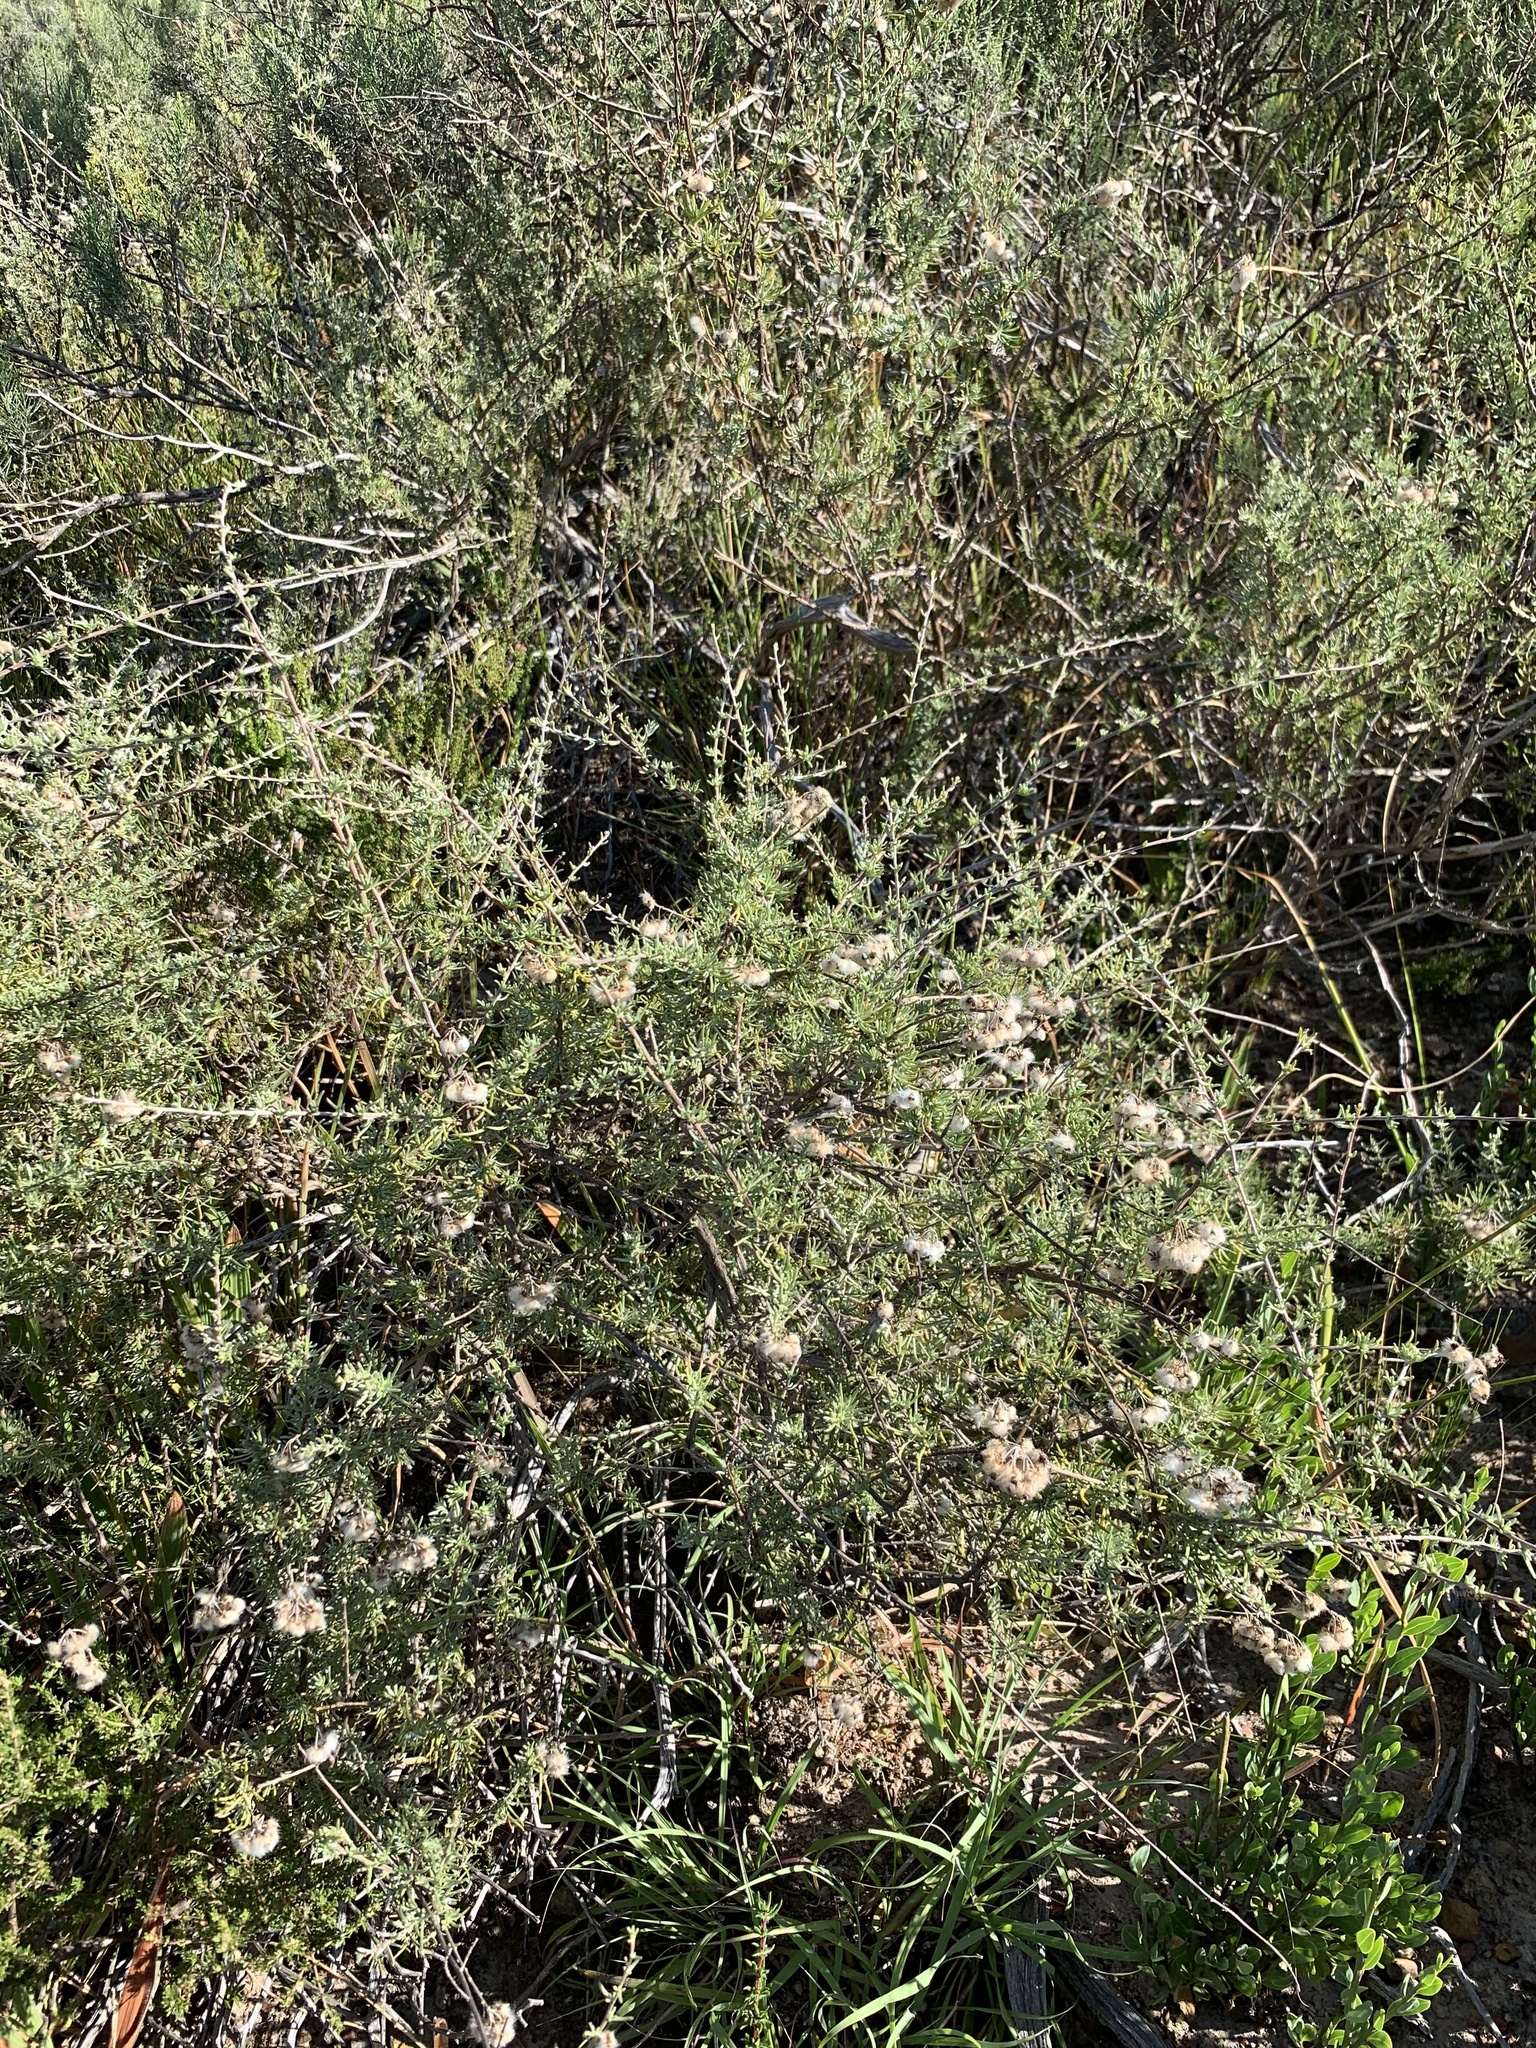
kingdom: Plantae
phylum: Tracheophyta
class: Magnoliopsida
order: Asterales
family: Asteraceae
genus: Eriocephalus
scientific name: Eriocephalus africanus
